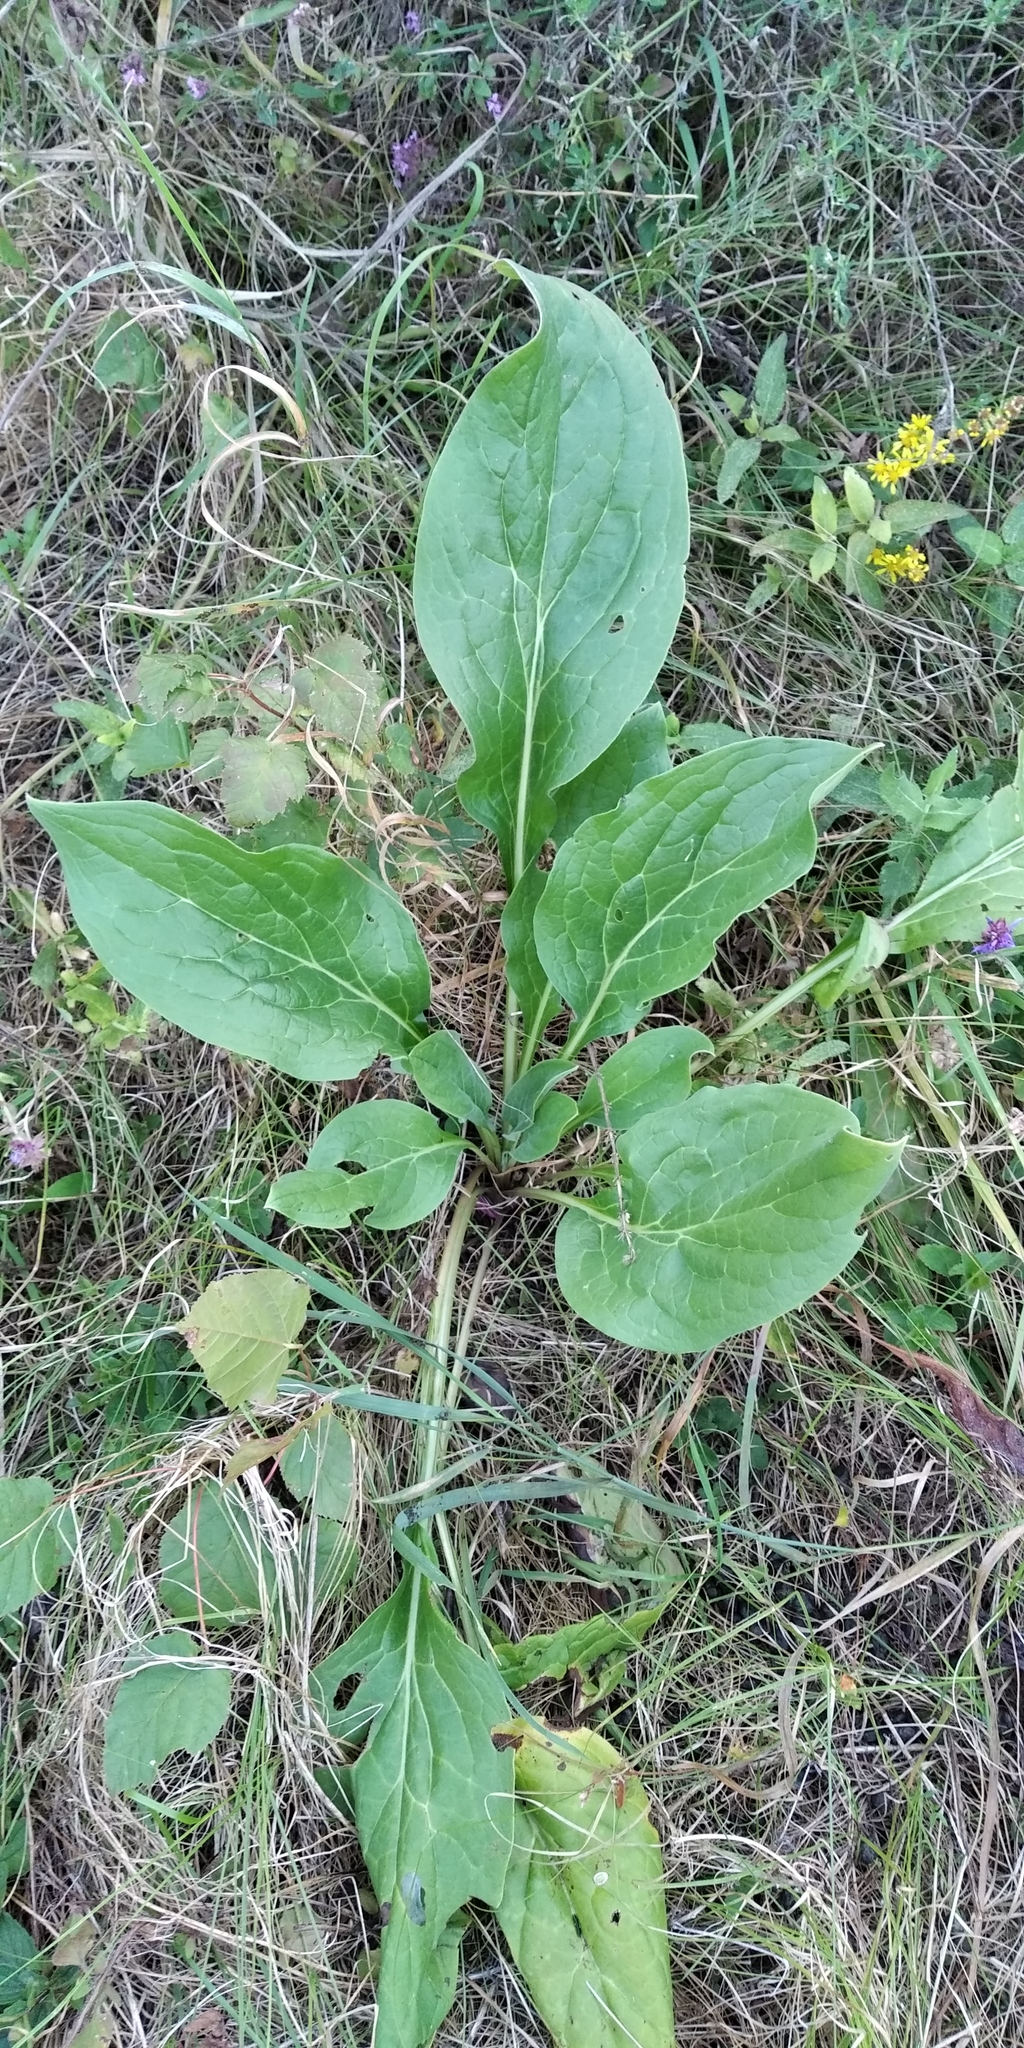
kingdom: Plantae
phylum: Tracheophyta
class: Magnoliopsida
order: Boraginales
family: Boraginaceae
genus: Cynoglossum
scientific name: Cynoglossum officinale
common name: Hound's-tongue
